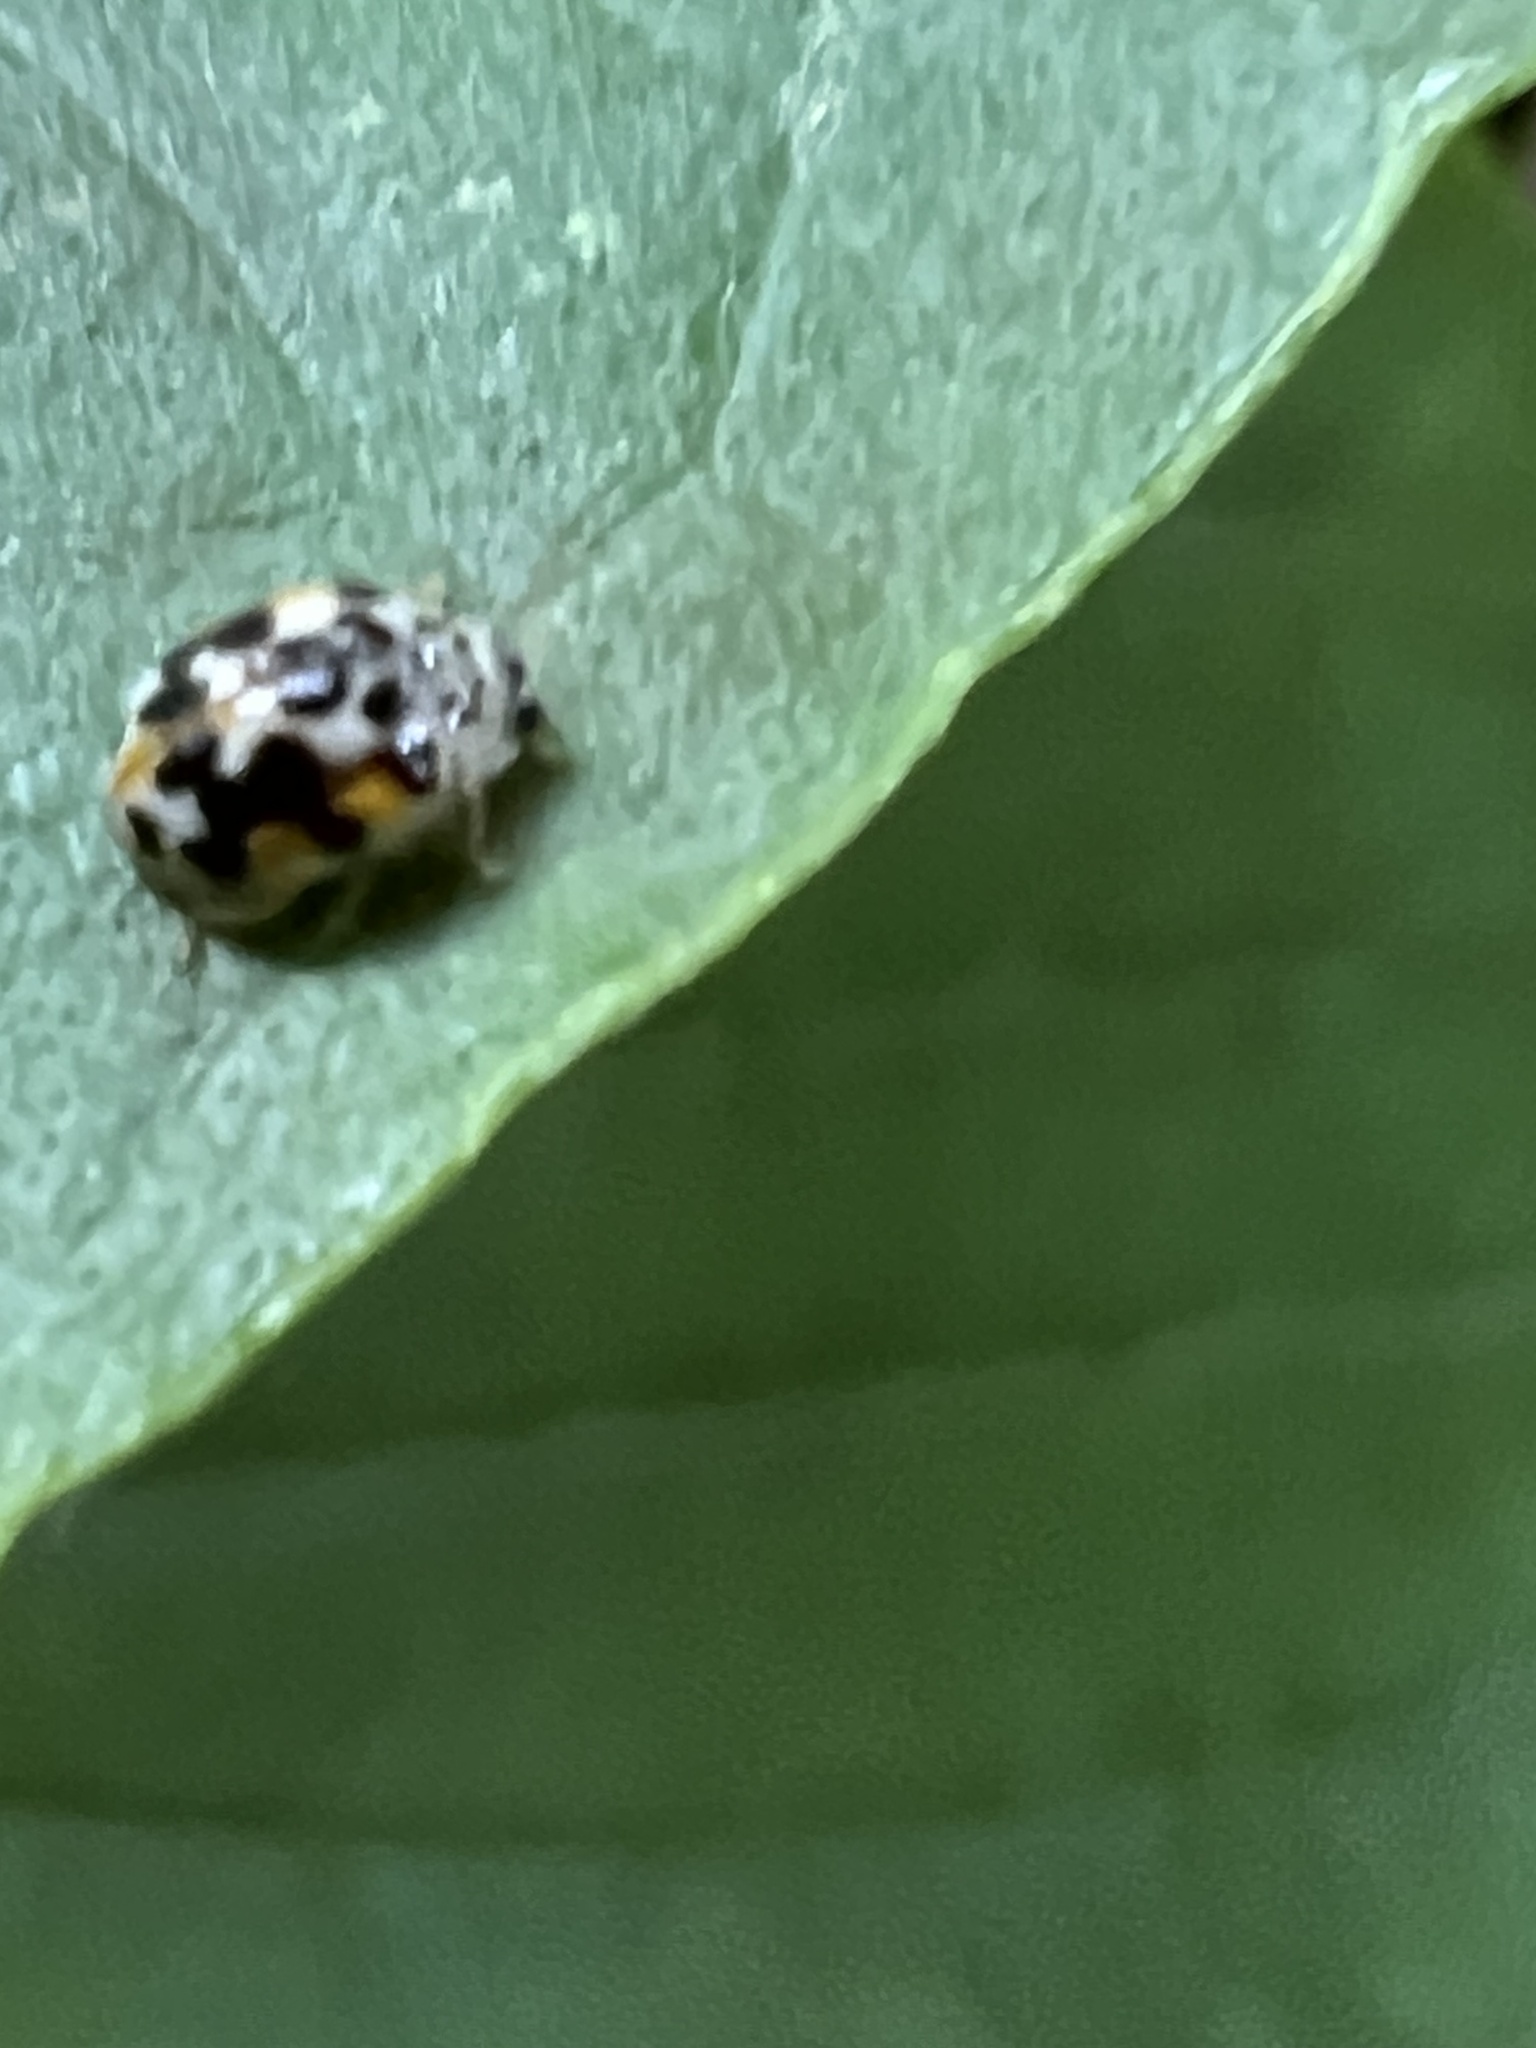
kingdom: Animalia
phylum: Arthropoda
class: Insecta
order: Coleoptera
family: Coccinellidae
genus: Psyllobora
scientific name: Psyllobora vigintimaculata
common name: Ladybird beetle
